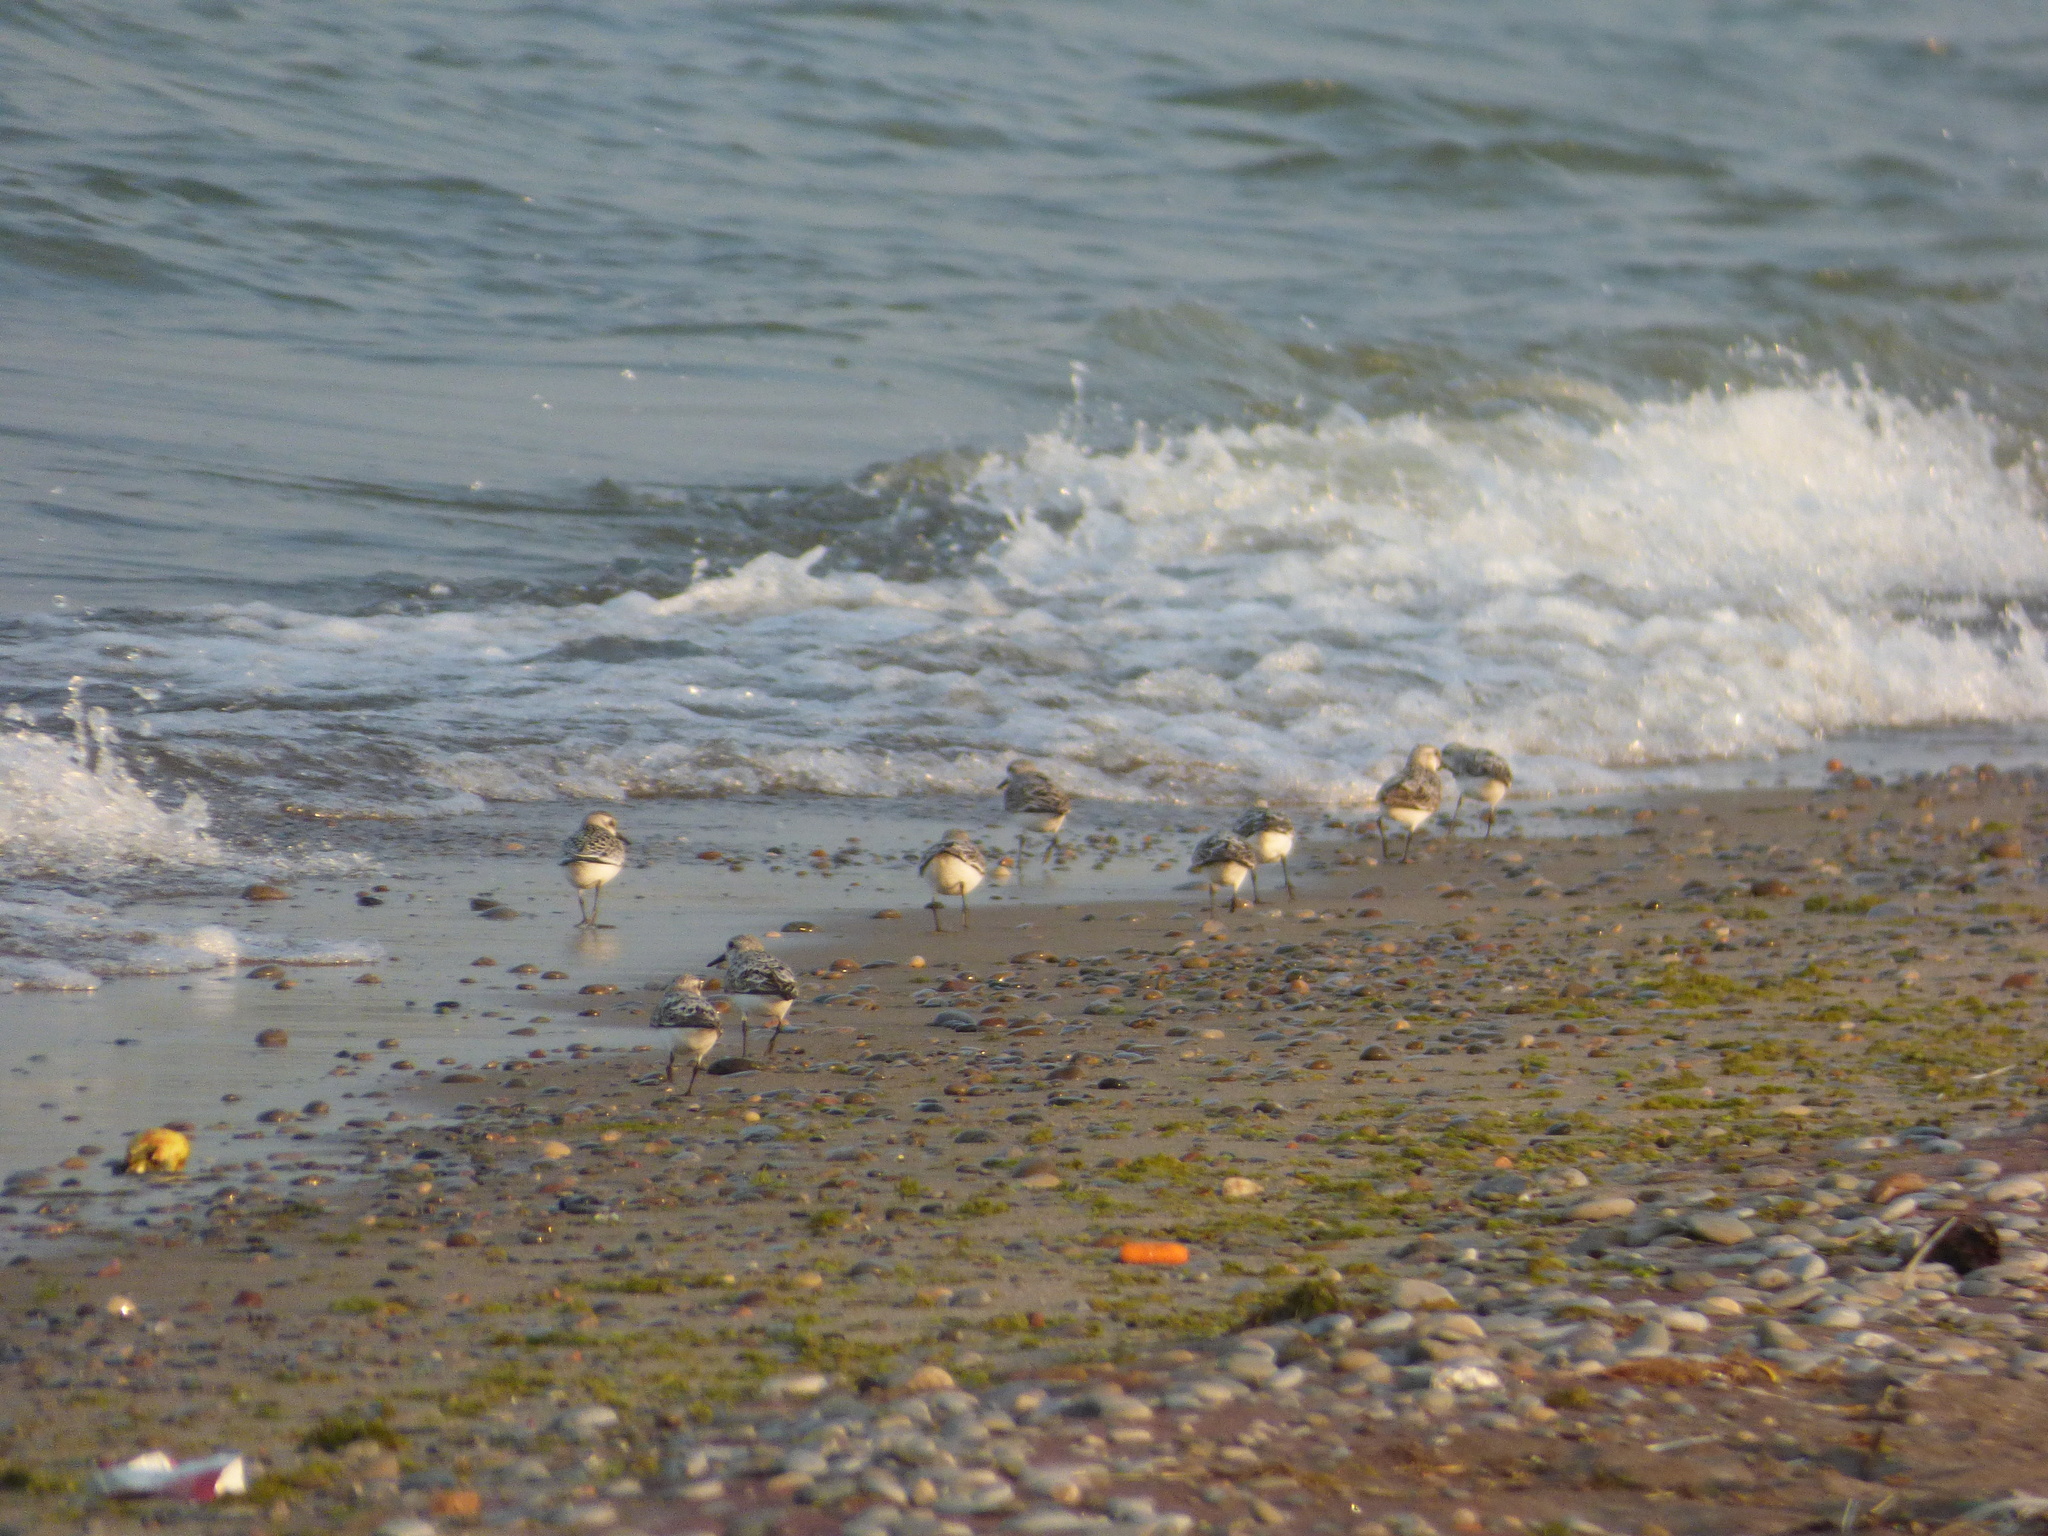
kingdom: Animalia
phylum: Chordata
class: Aves
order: Charadriiformes
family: Scolopacidae
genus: Calidris
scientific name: Calidris alba
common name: Sanderling
